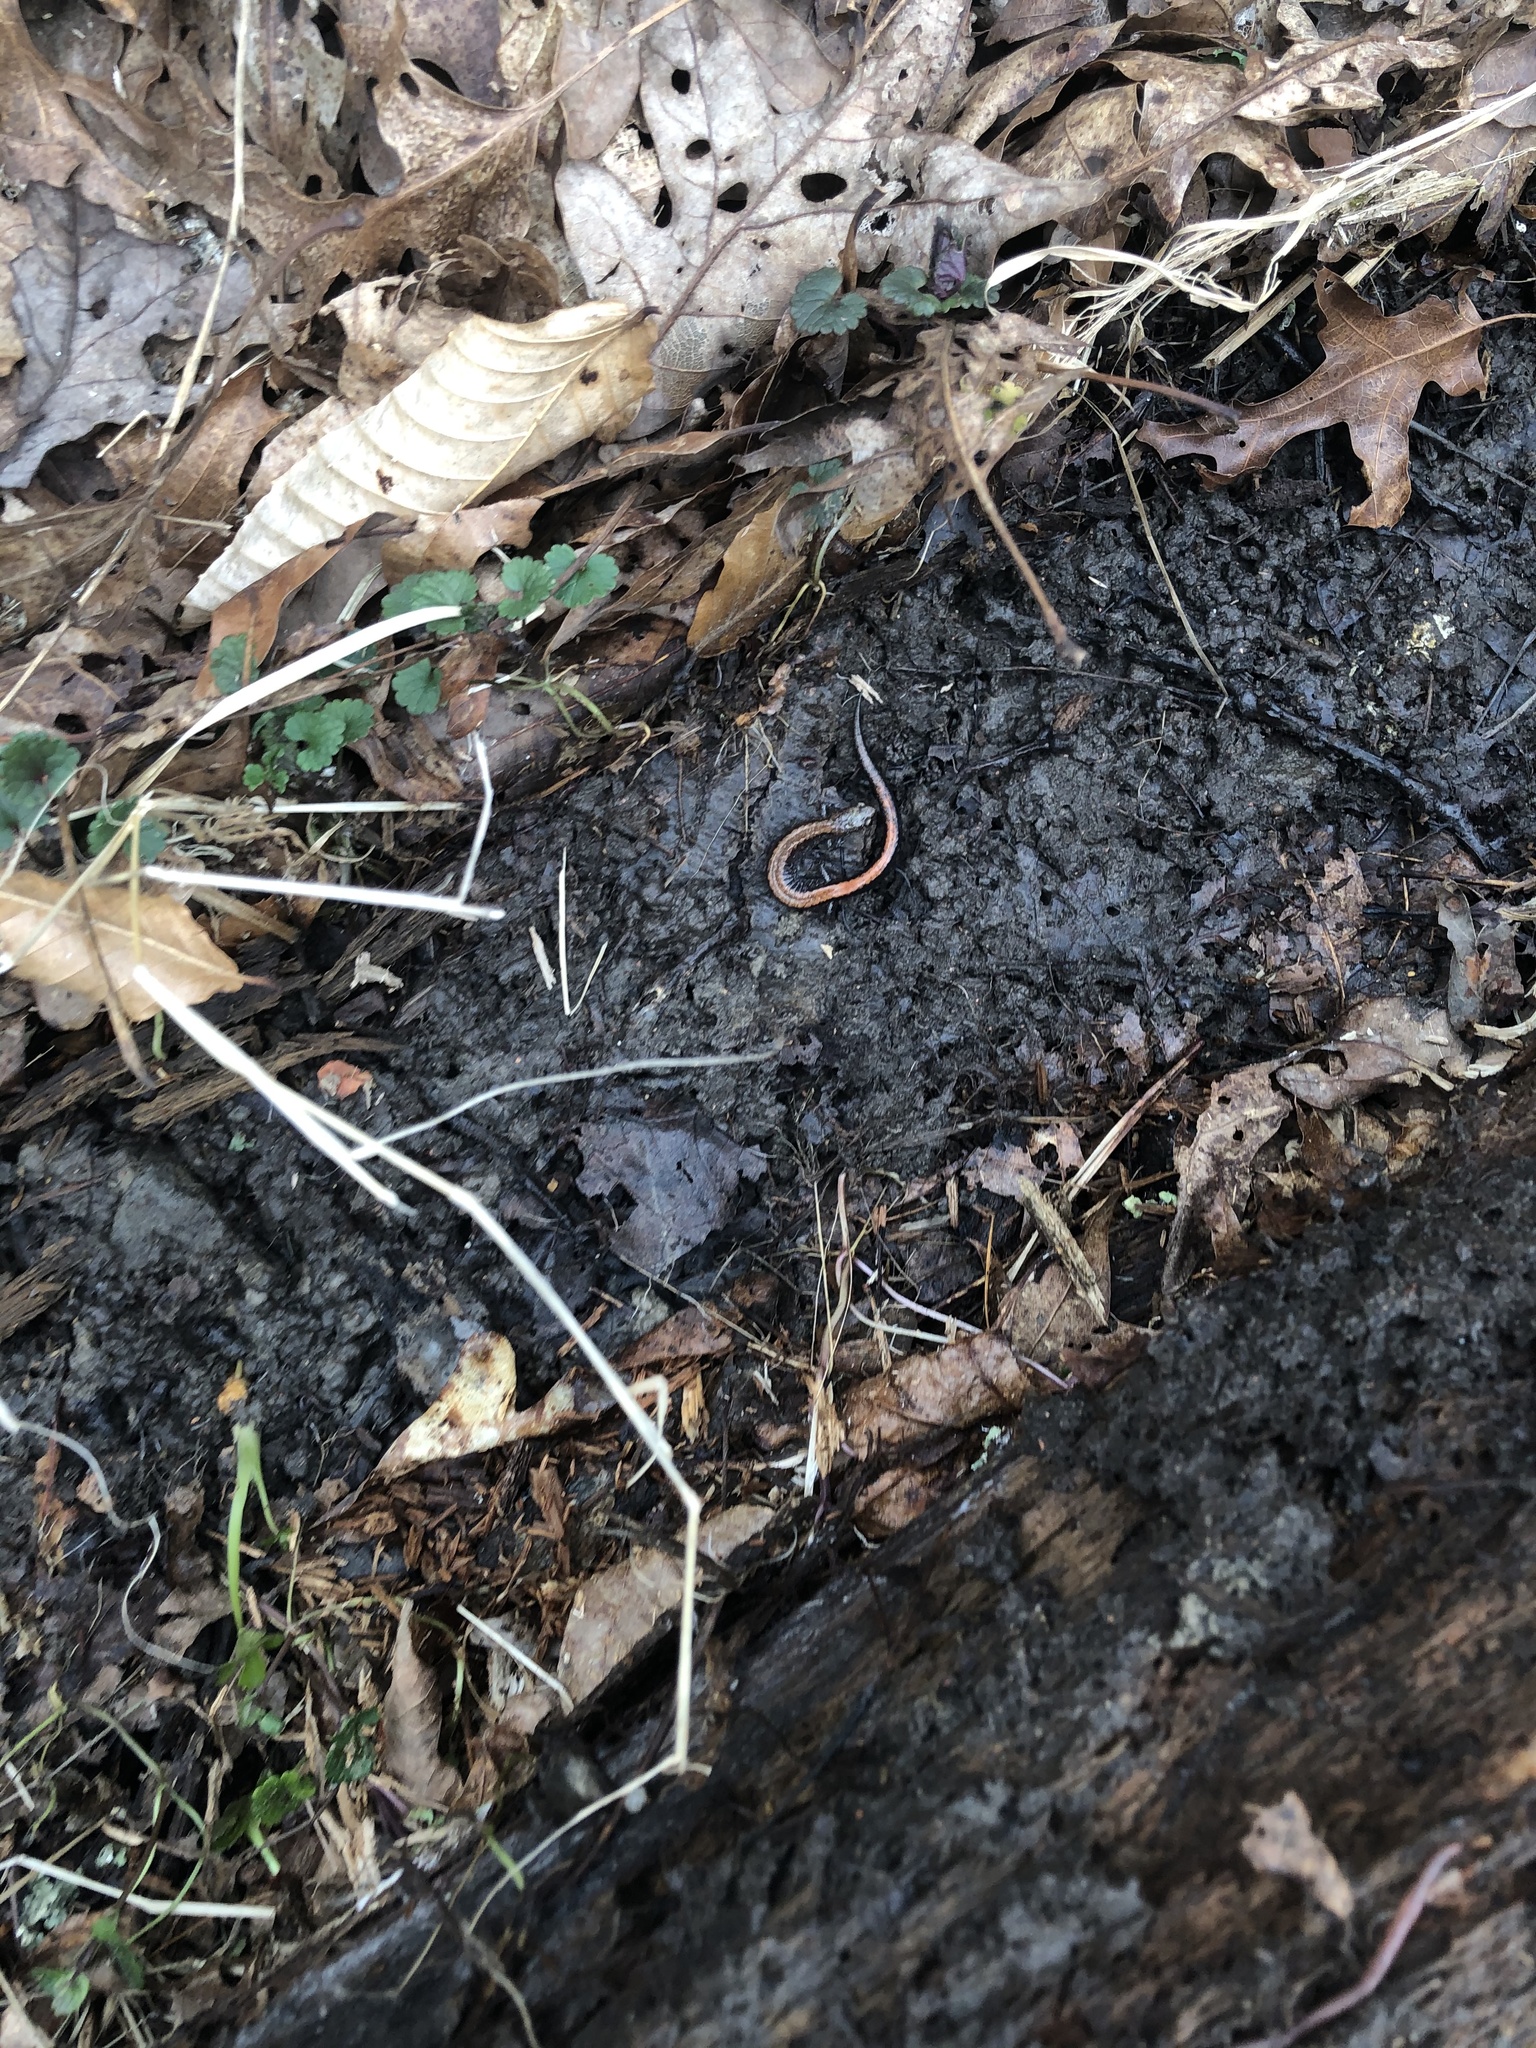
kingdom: Animalia
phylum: Chordata
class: Amphibia
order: Caudata
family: Plethodontidae
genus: Plethodon
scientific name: Plethodon cinereus
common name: Redback salamander
